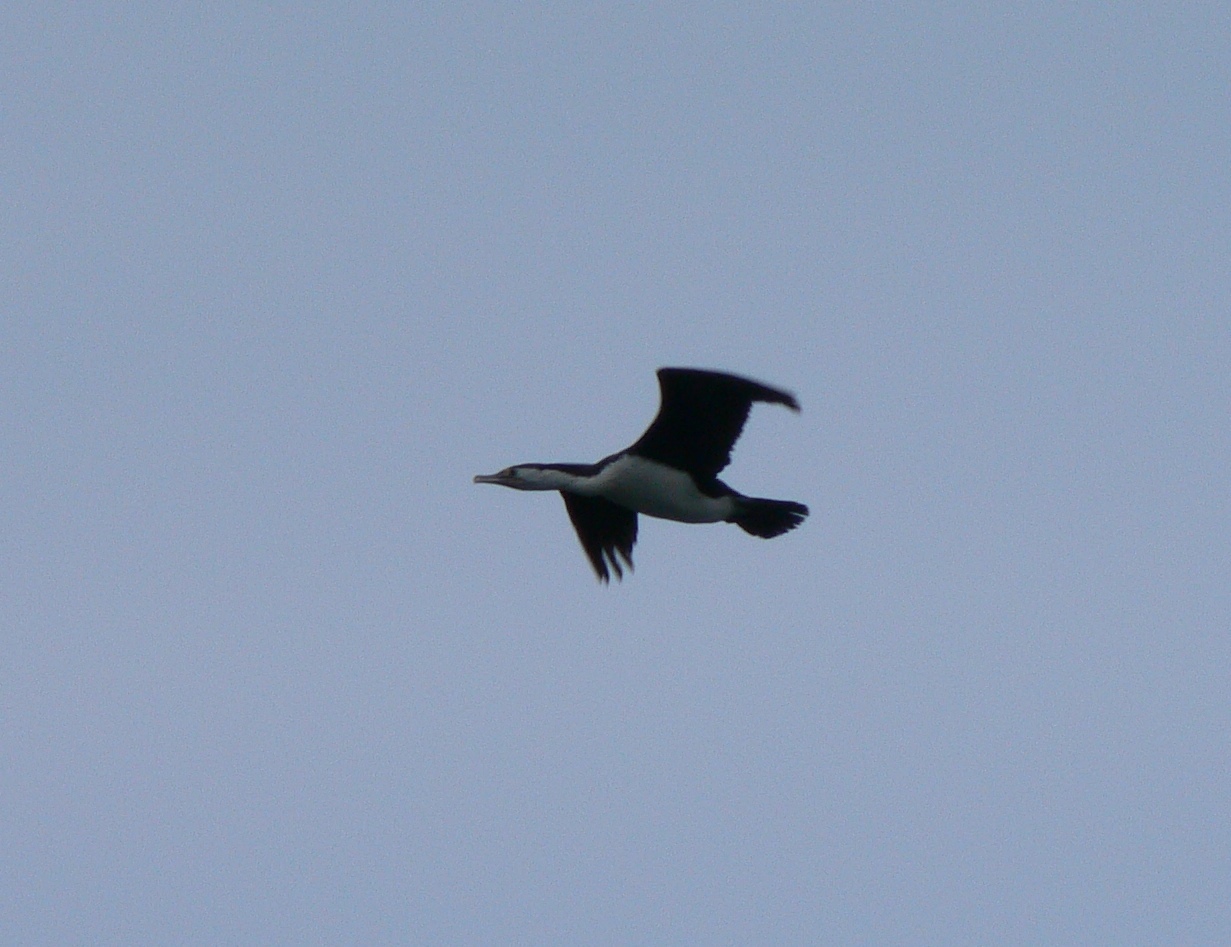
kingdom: Animalia
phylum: Chordata
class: Aves
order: Suliformes
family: Phalacrocoracidae
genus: Phalacrocorax
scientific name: Phalacrocorax varius
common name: Pied cormorant
